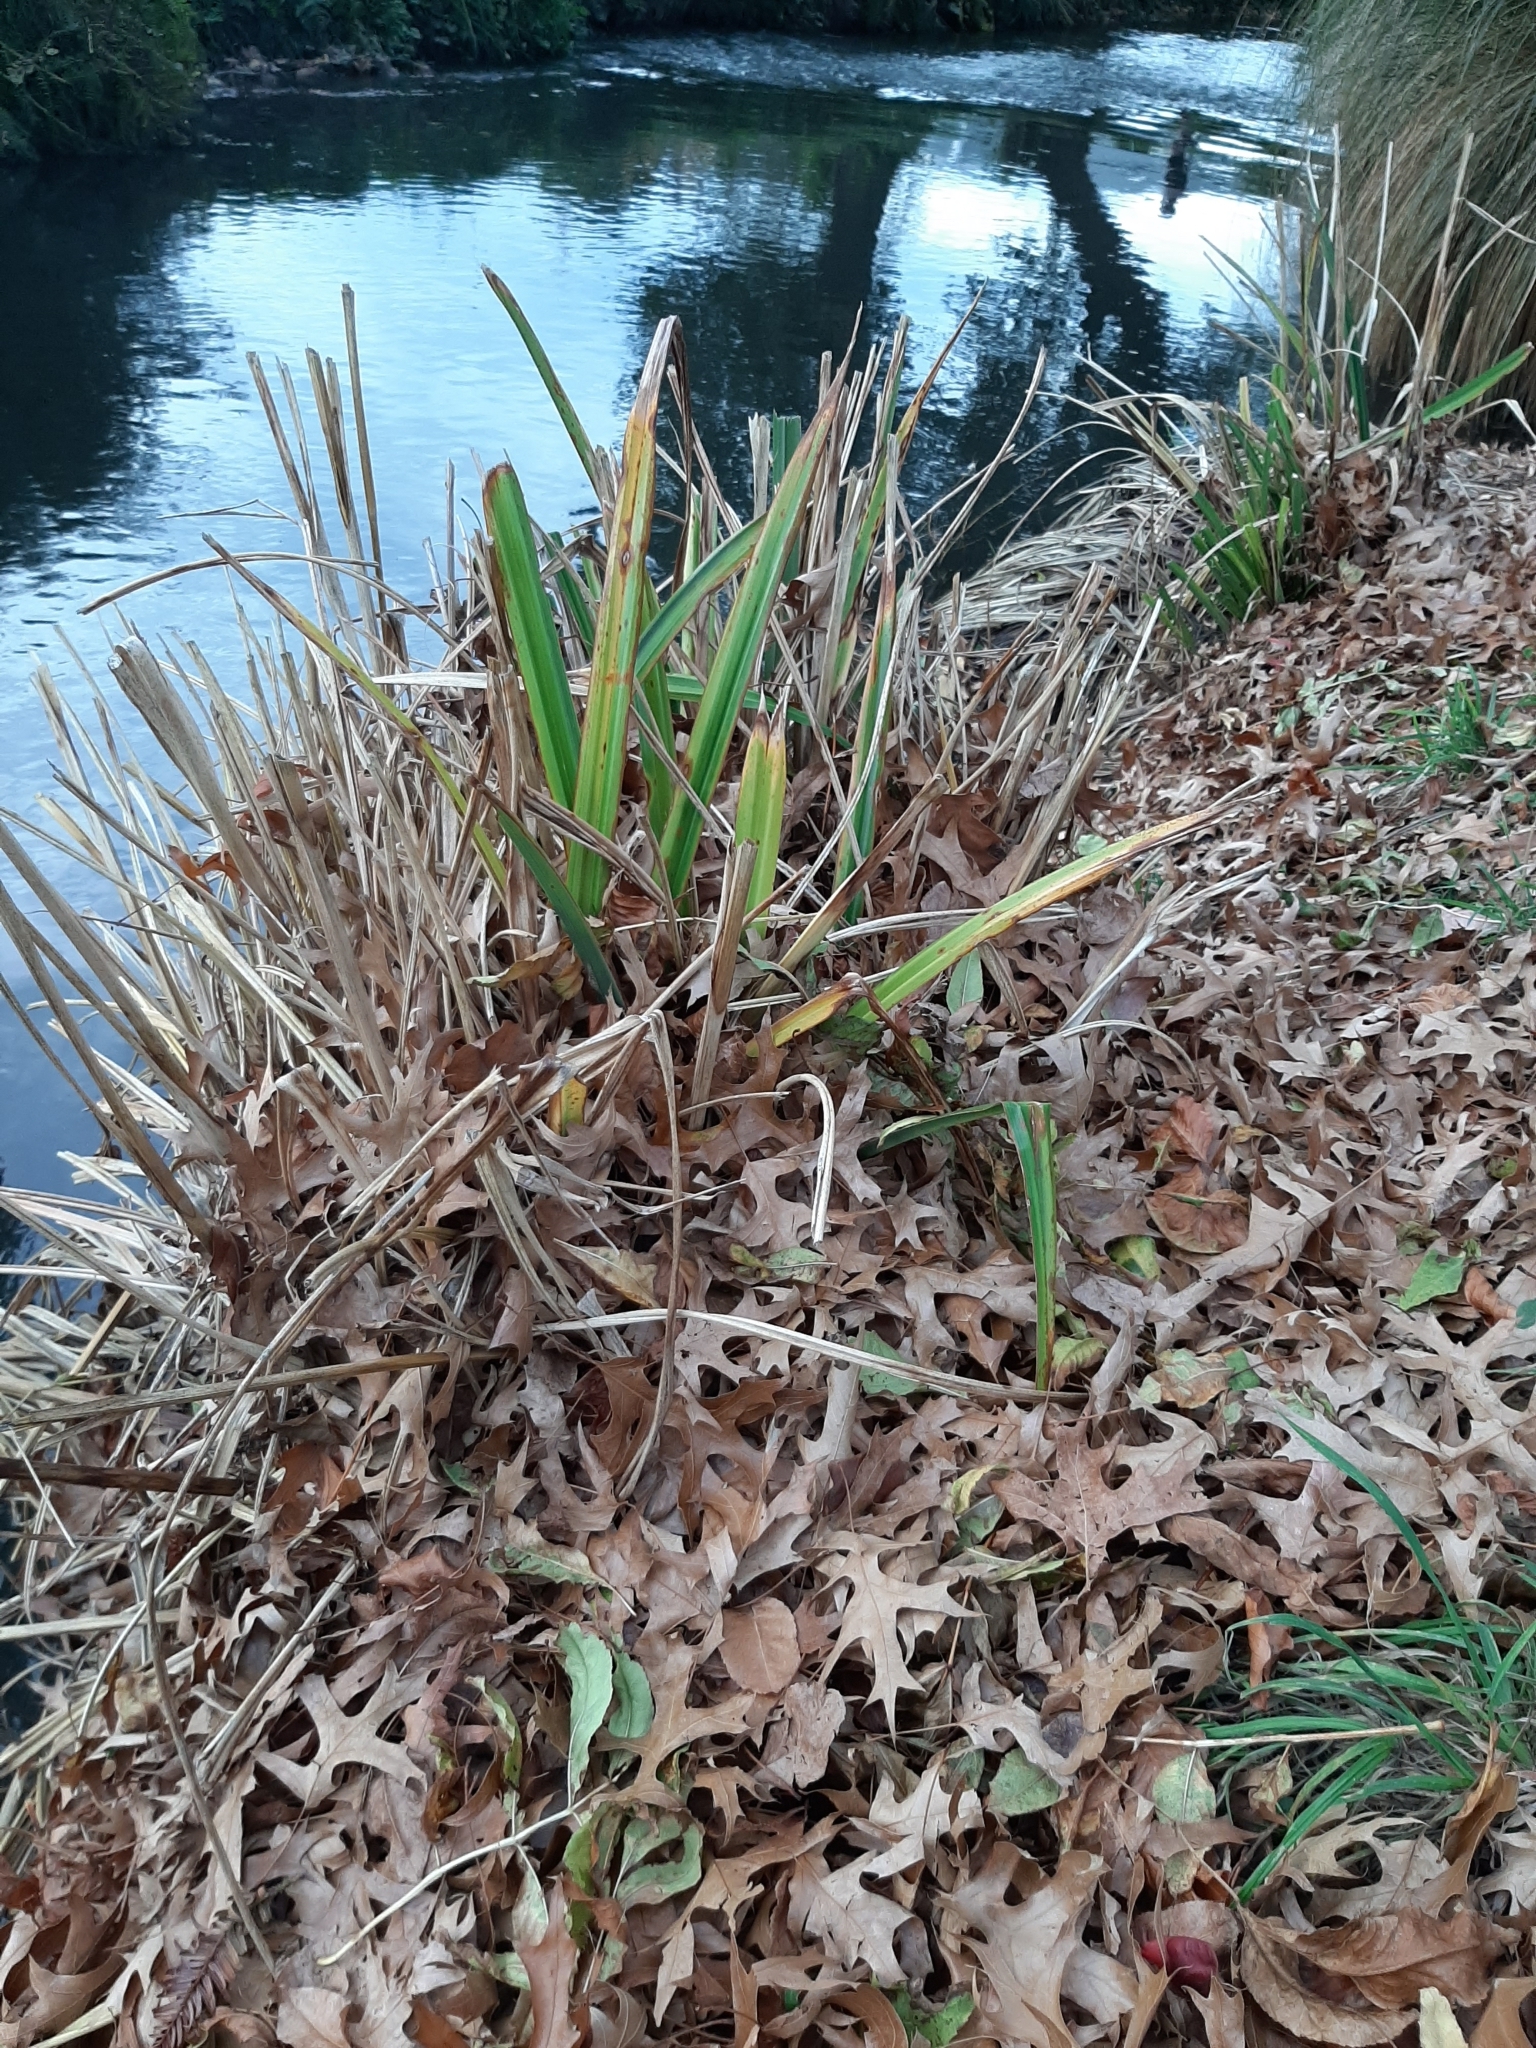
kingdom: Plantae
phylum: Tracheophyta
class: Liliopsida
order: Poales
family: Cyperaceae
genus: Carex
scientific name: Carex pendula
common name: Pendulous sedge
